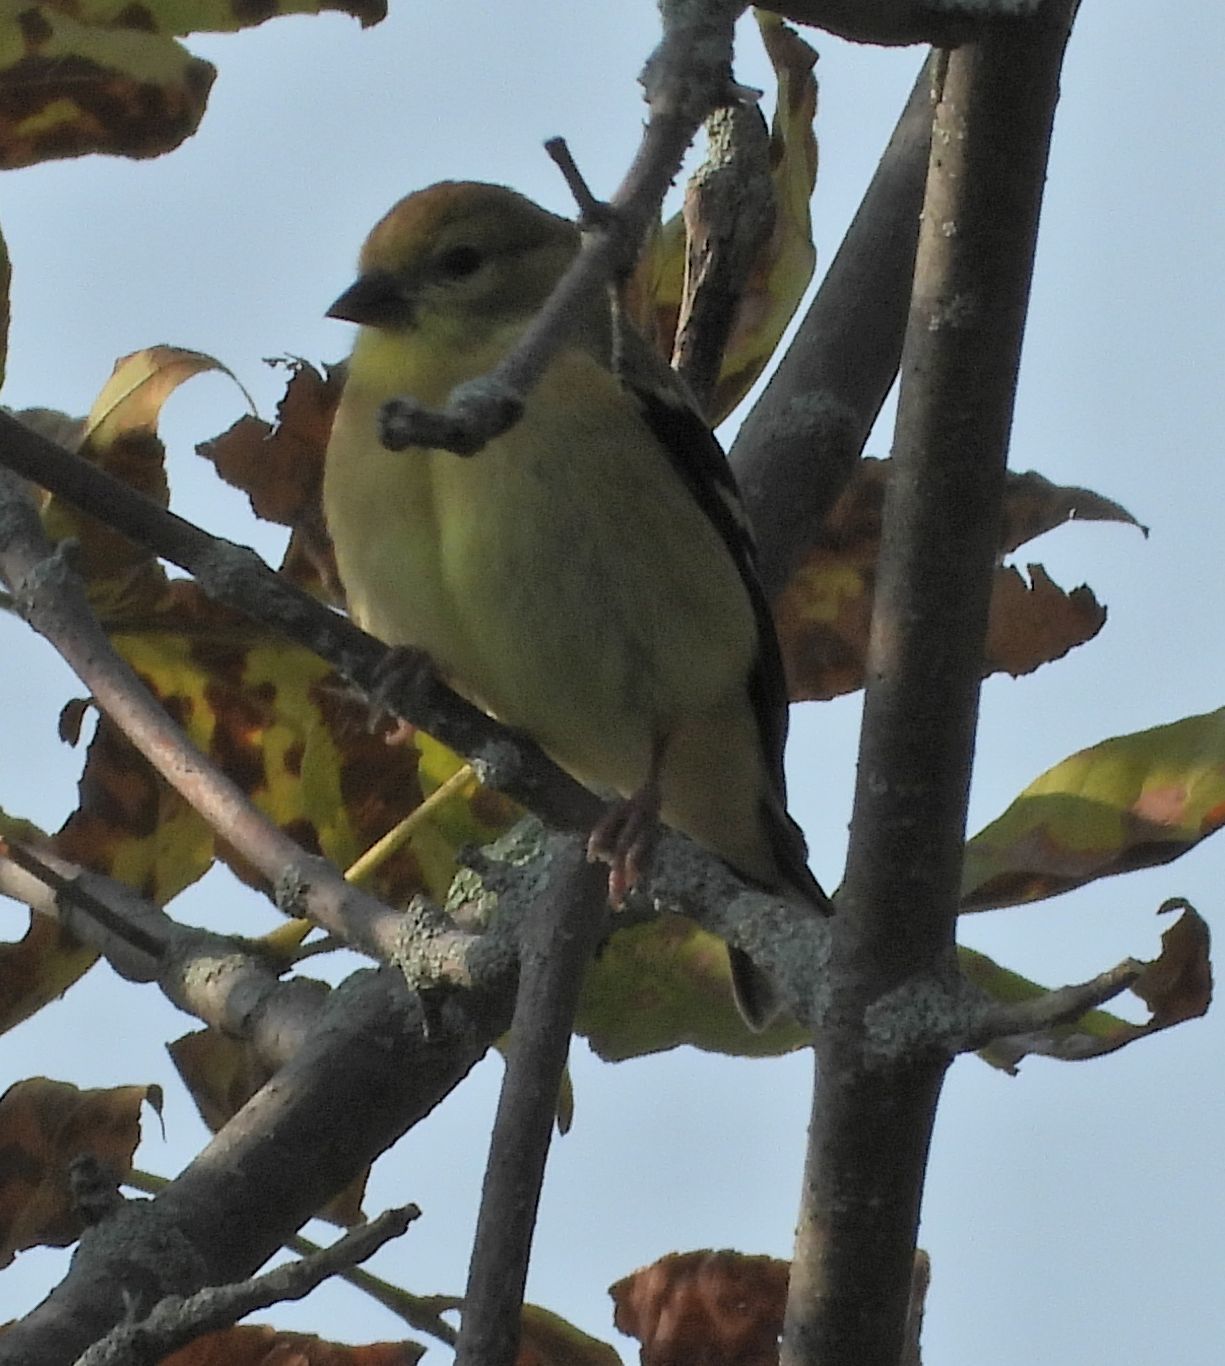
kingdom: Animalia
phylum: Chordata
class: Aves
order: Passeriformes
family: Fringillidae
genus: Spinus
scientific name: Spinus tristis
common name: American goldfinch
